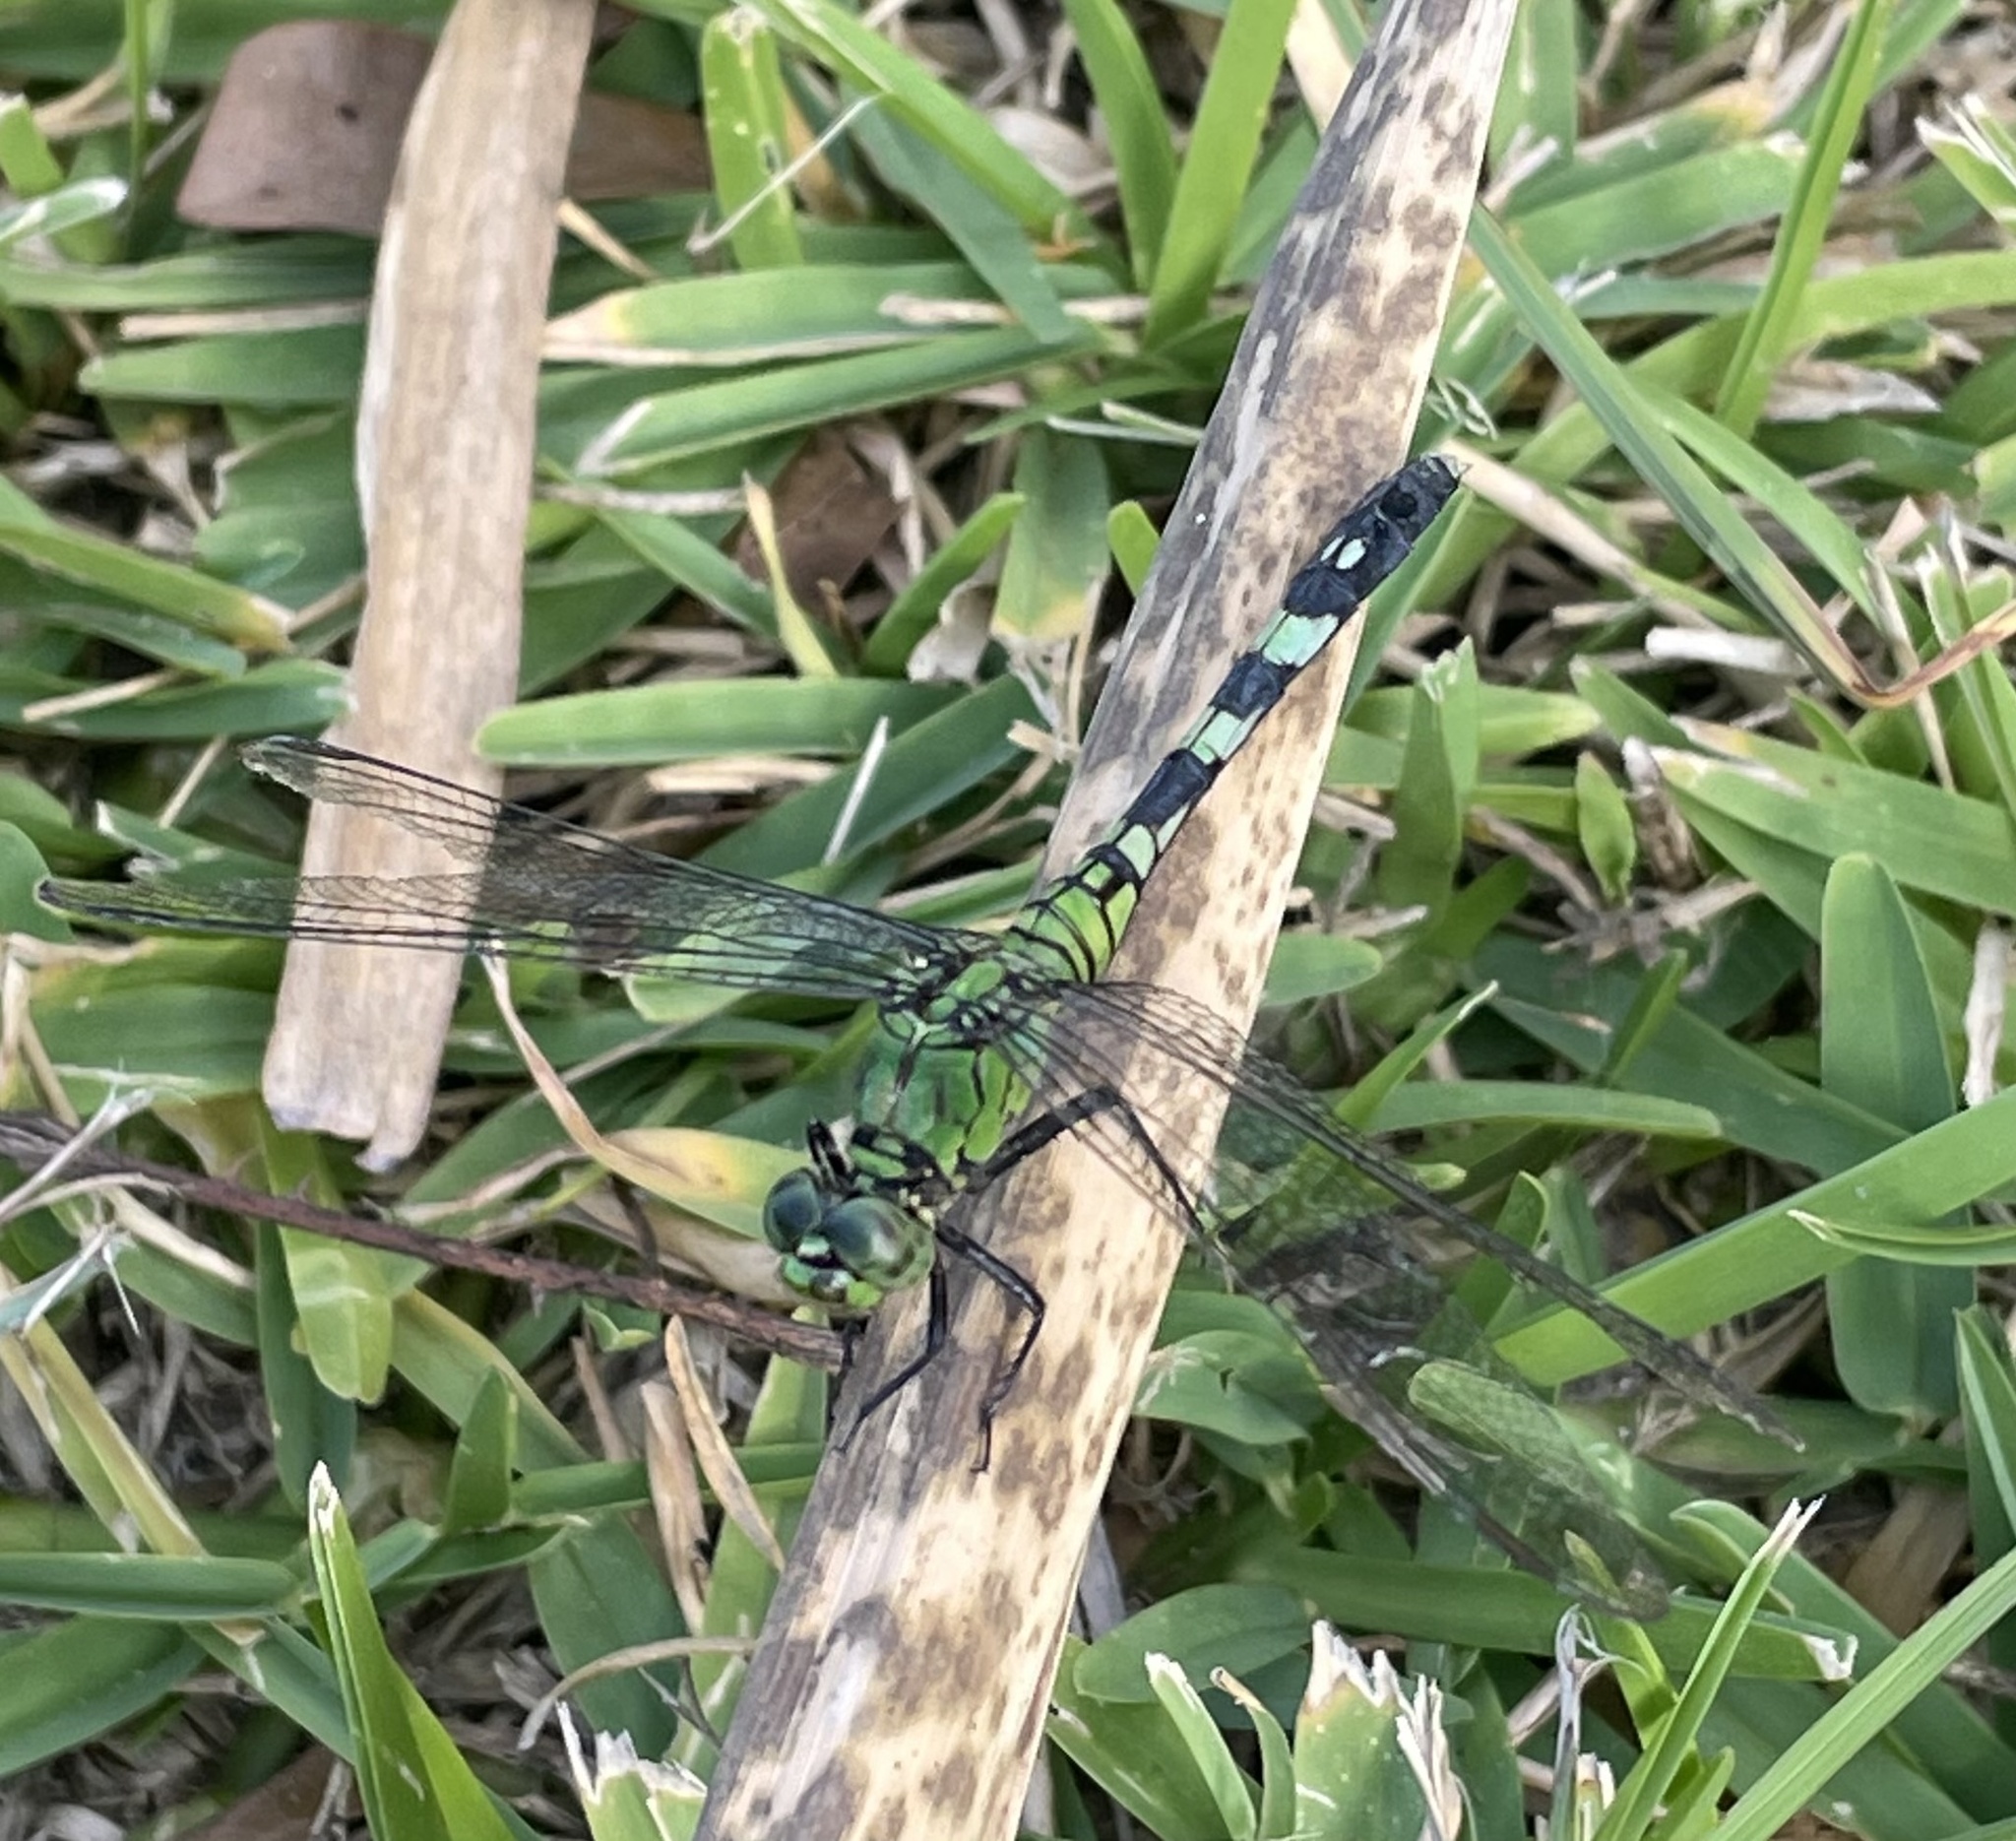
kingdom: Animalia
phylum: Arthropoda
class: Insecta
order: Odonata
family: Libellulidae
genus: Erythemis
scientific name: Erythemis simplicicollis
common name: Eastern pondhawk
